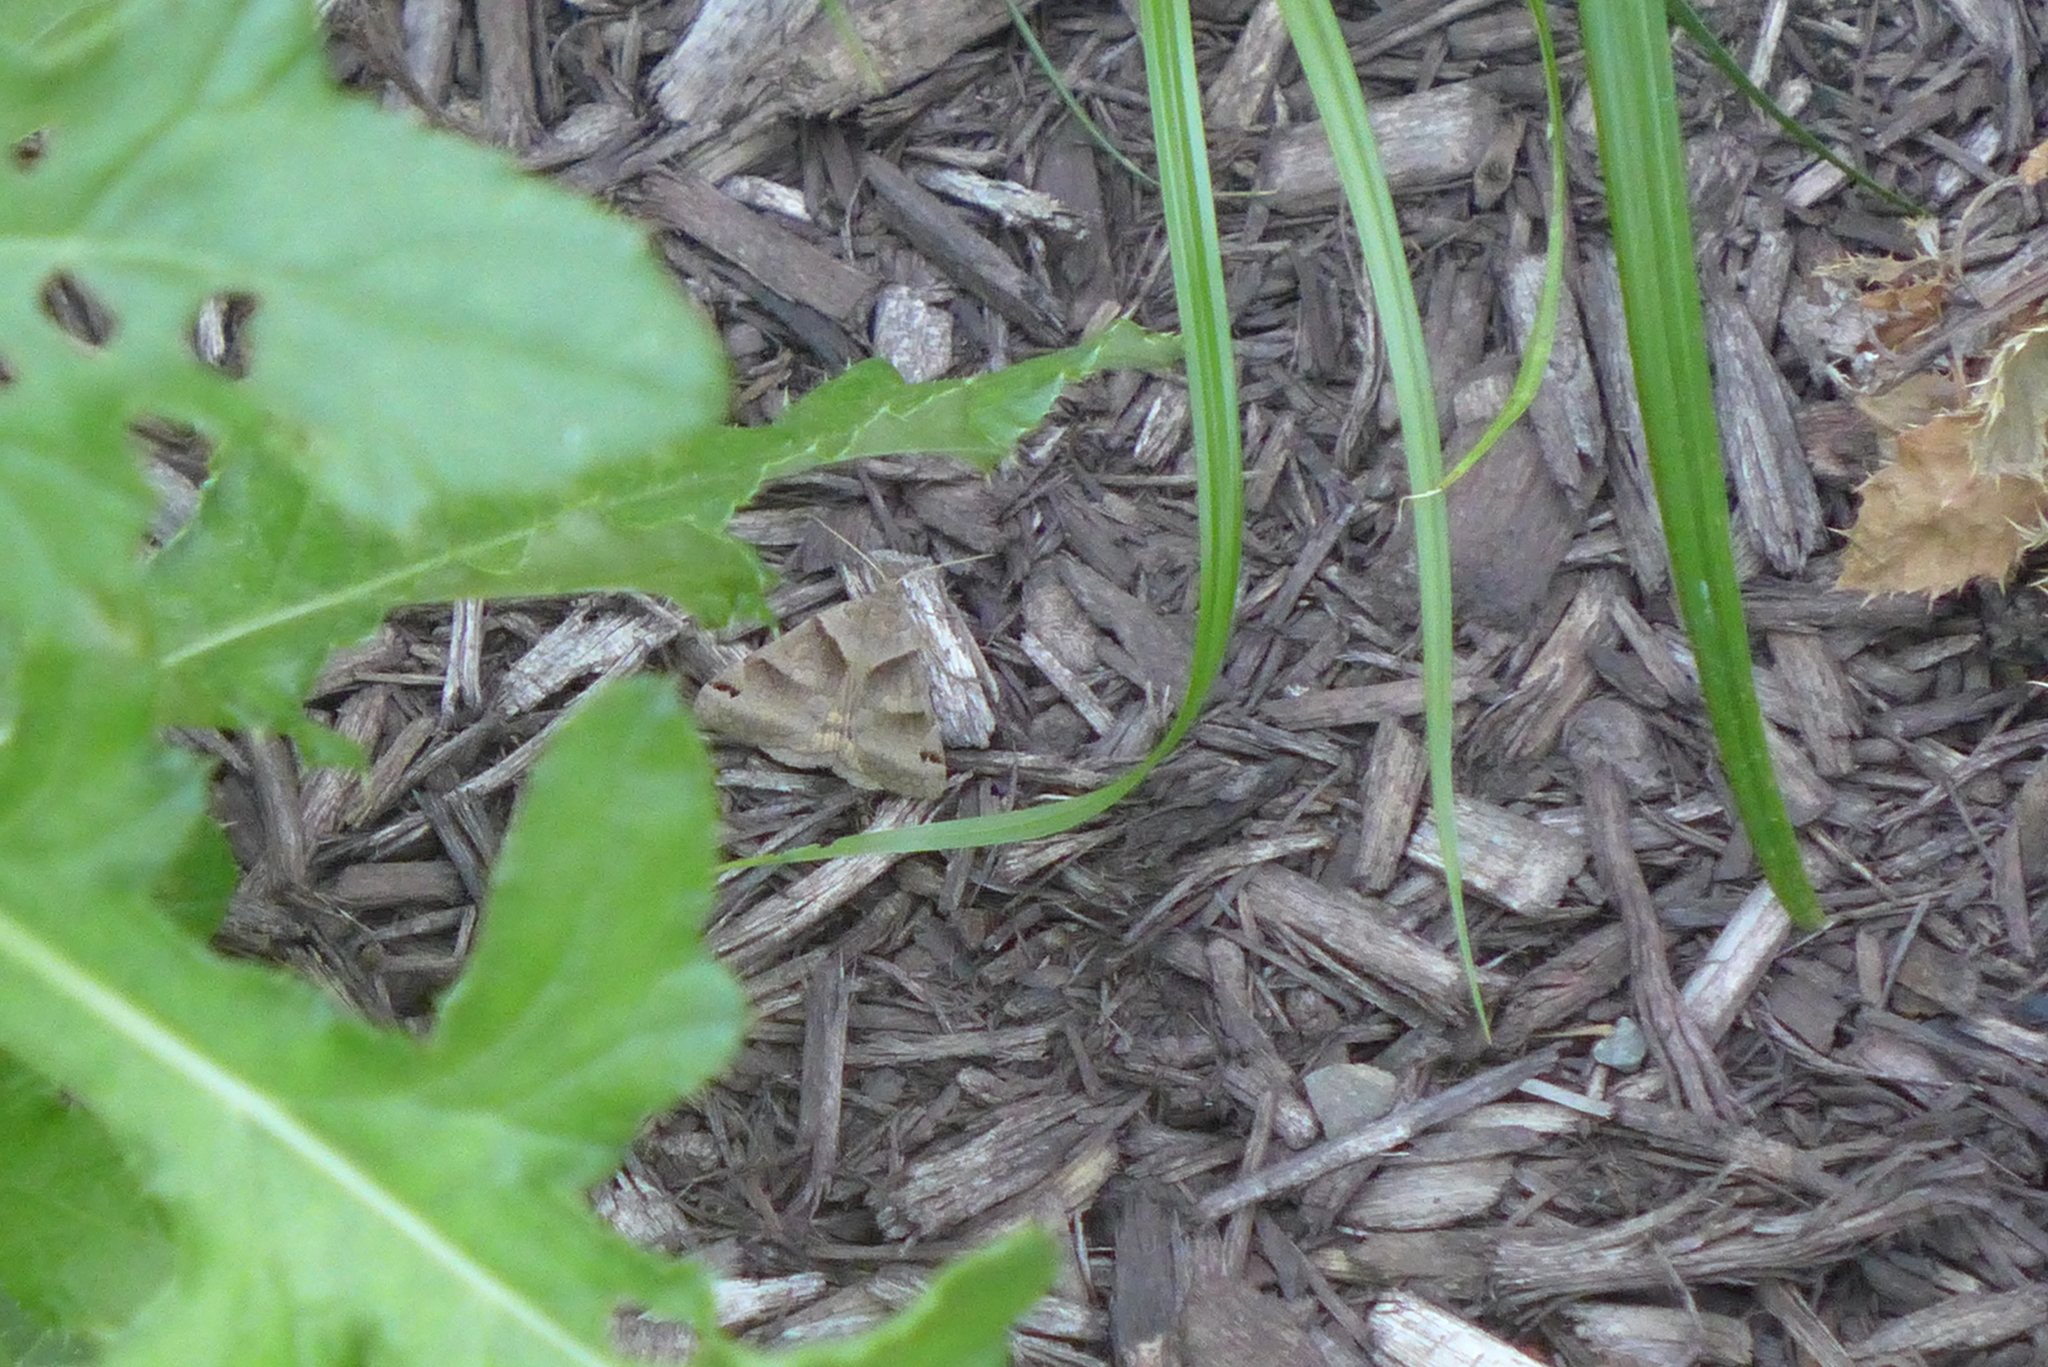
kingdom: Animalia
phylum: Arthropoda
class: Insecta
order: Lepidoptera
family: Erebidae
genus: Caenurgina
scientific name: Caenurgina crassiuscula
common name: Double-barred
